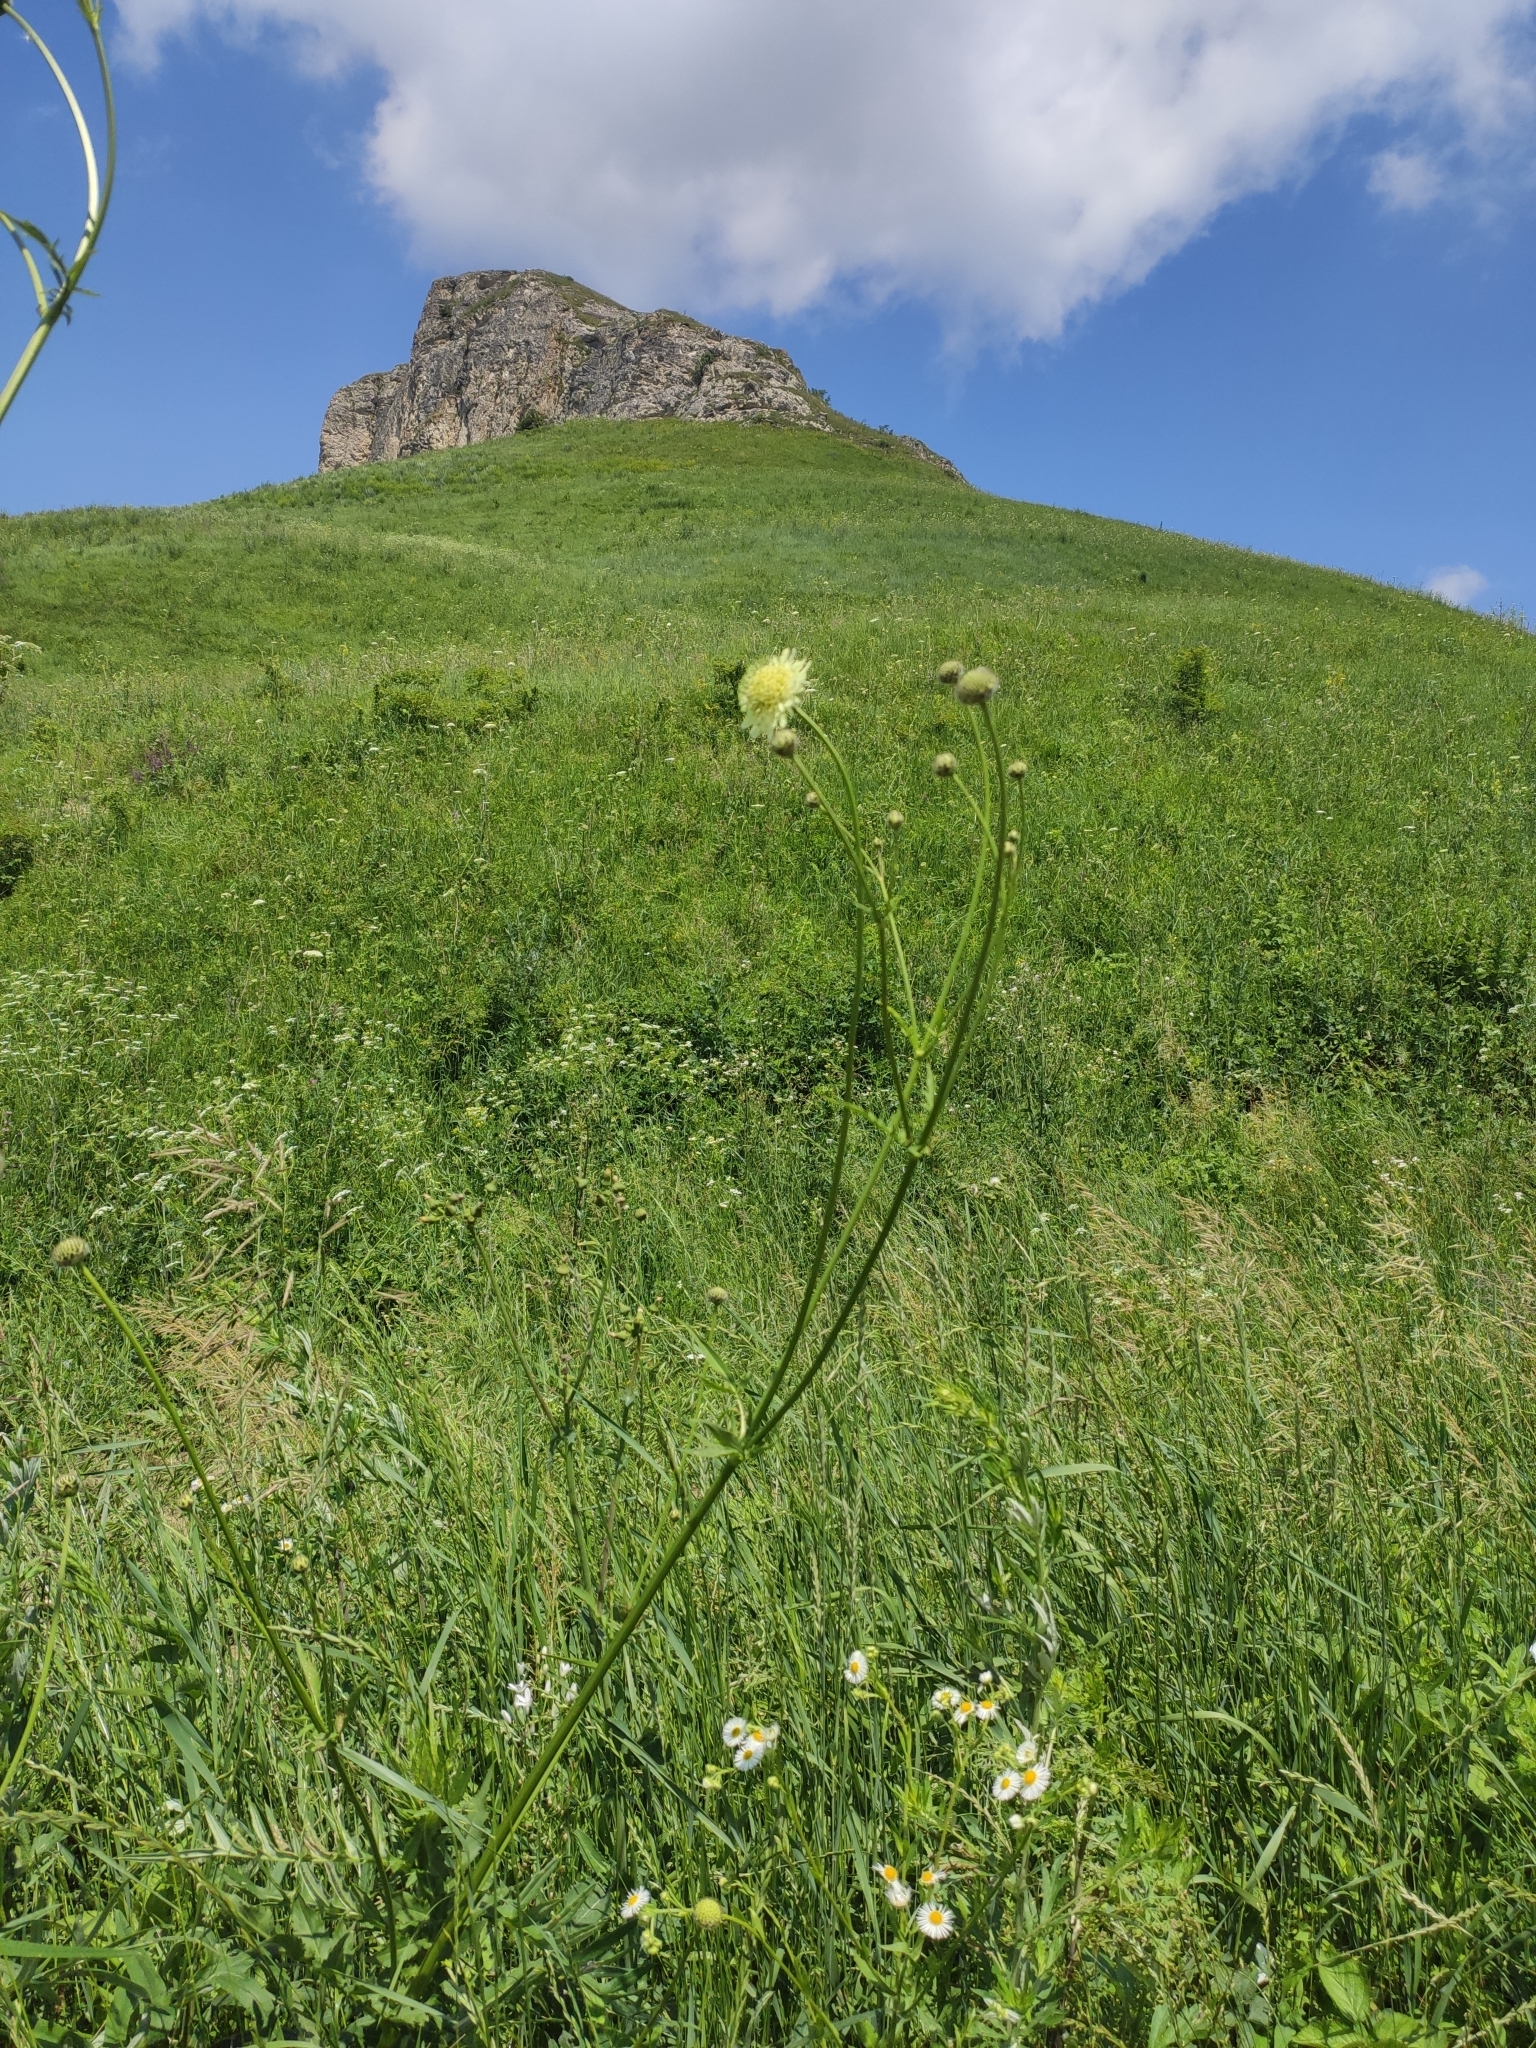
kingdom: Plantae
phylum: Tracheophyta
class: Magnoliopsida
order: Dipsacales
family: Caprifoliaceae
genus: Cephalaria
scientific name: Cephalaria gigantea
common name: Tatarian cephalaria
